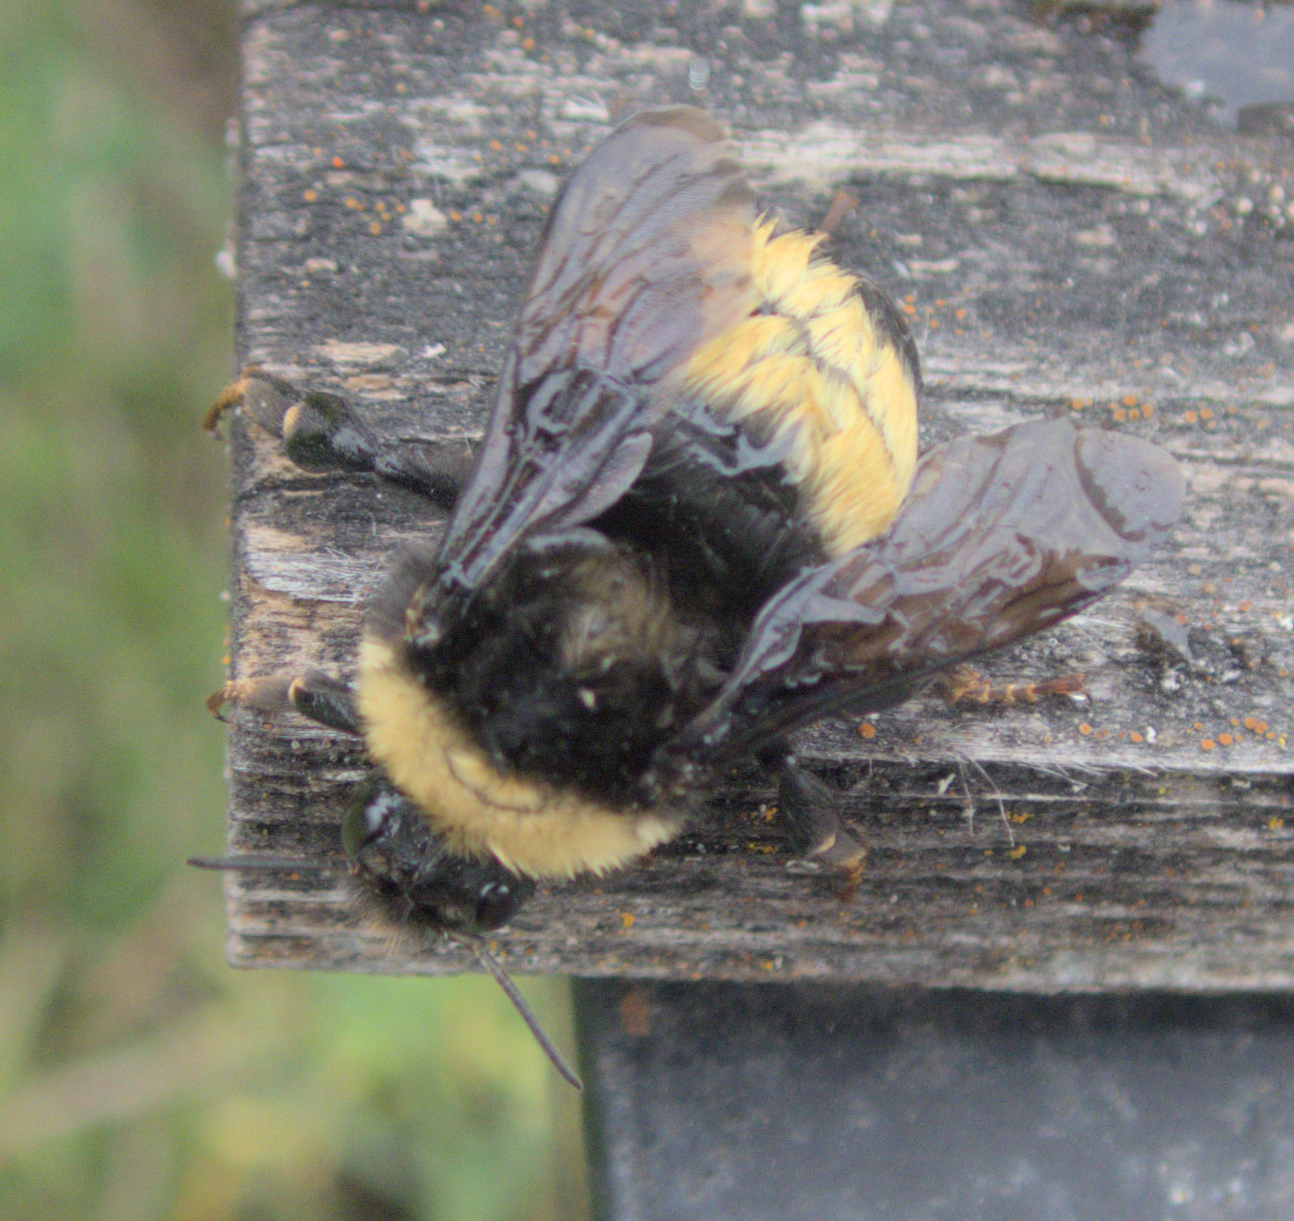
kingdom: Animalia
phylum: Arthropoda
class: Insecta
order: Hymenoptera
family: Apidae
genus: Bombus
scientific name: Bombus terricola
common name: Yellow-banded bumble bee
